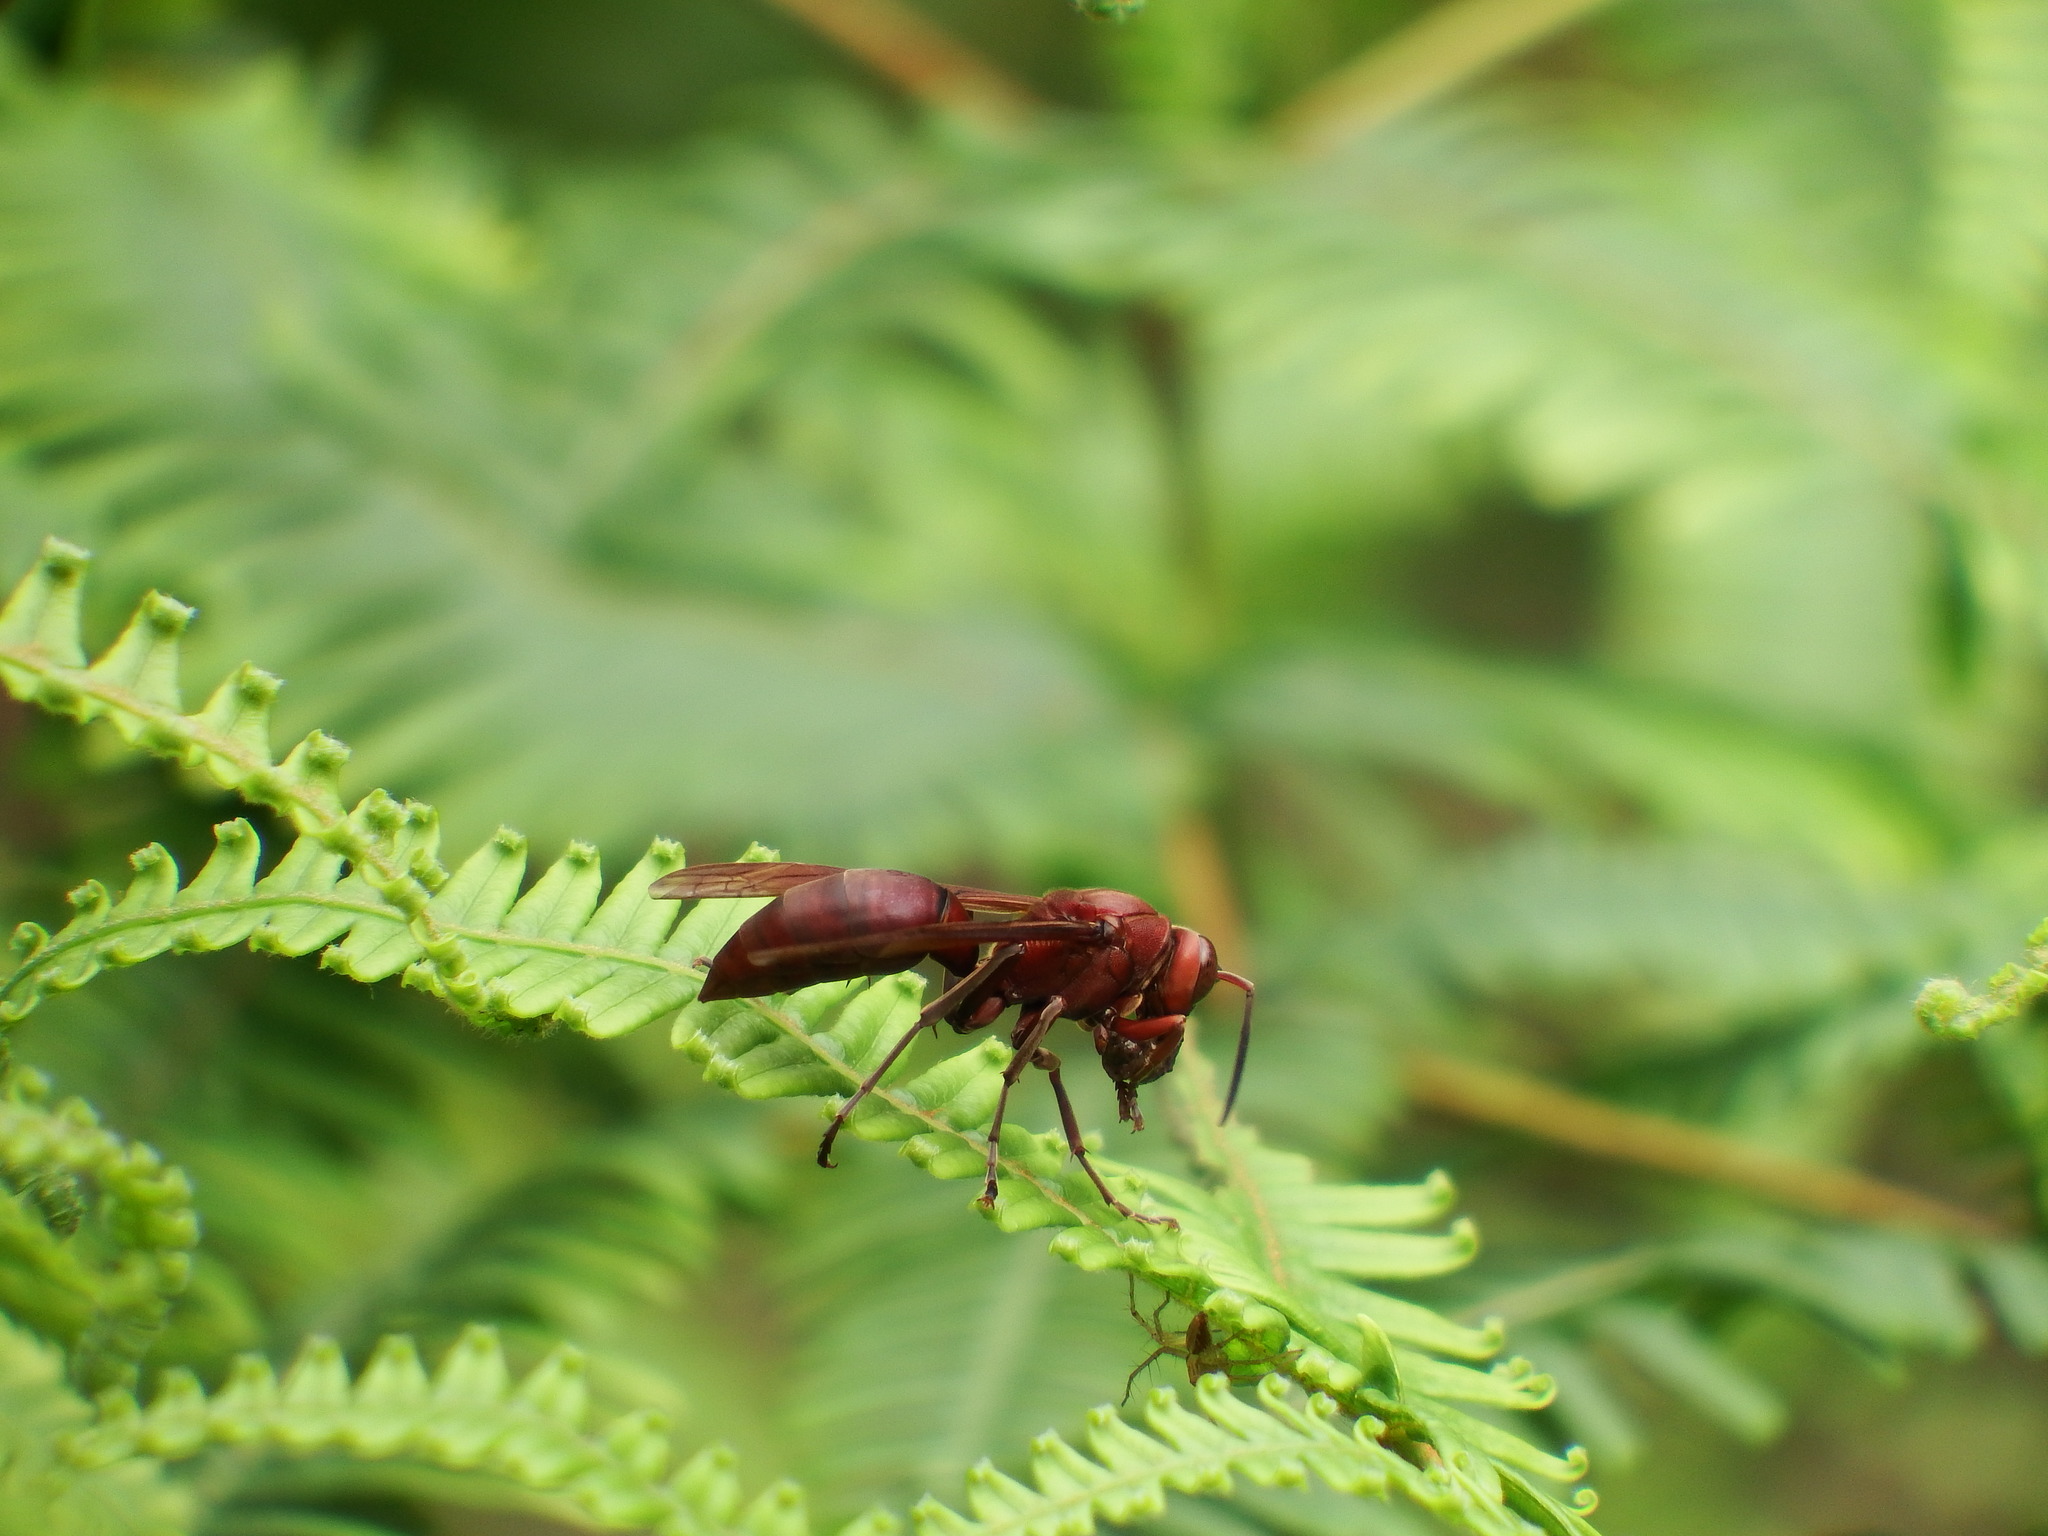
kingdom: Animalia
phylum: Arthropoda
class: Insecta
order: Hymenoptera
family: Eumenidae
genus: Polistes
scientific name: Polistes gigas
